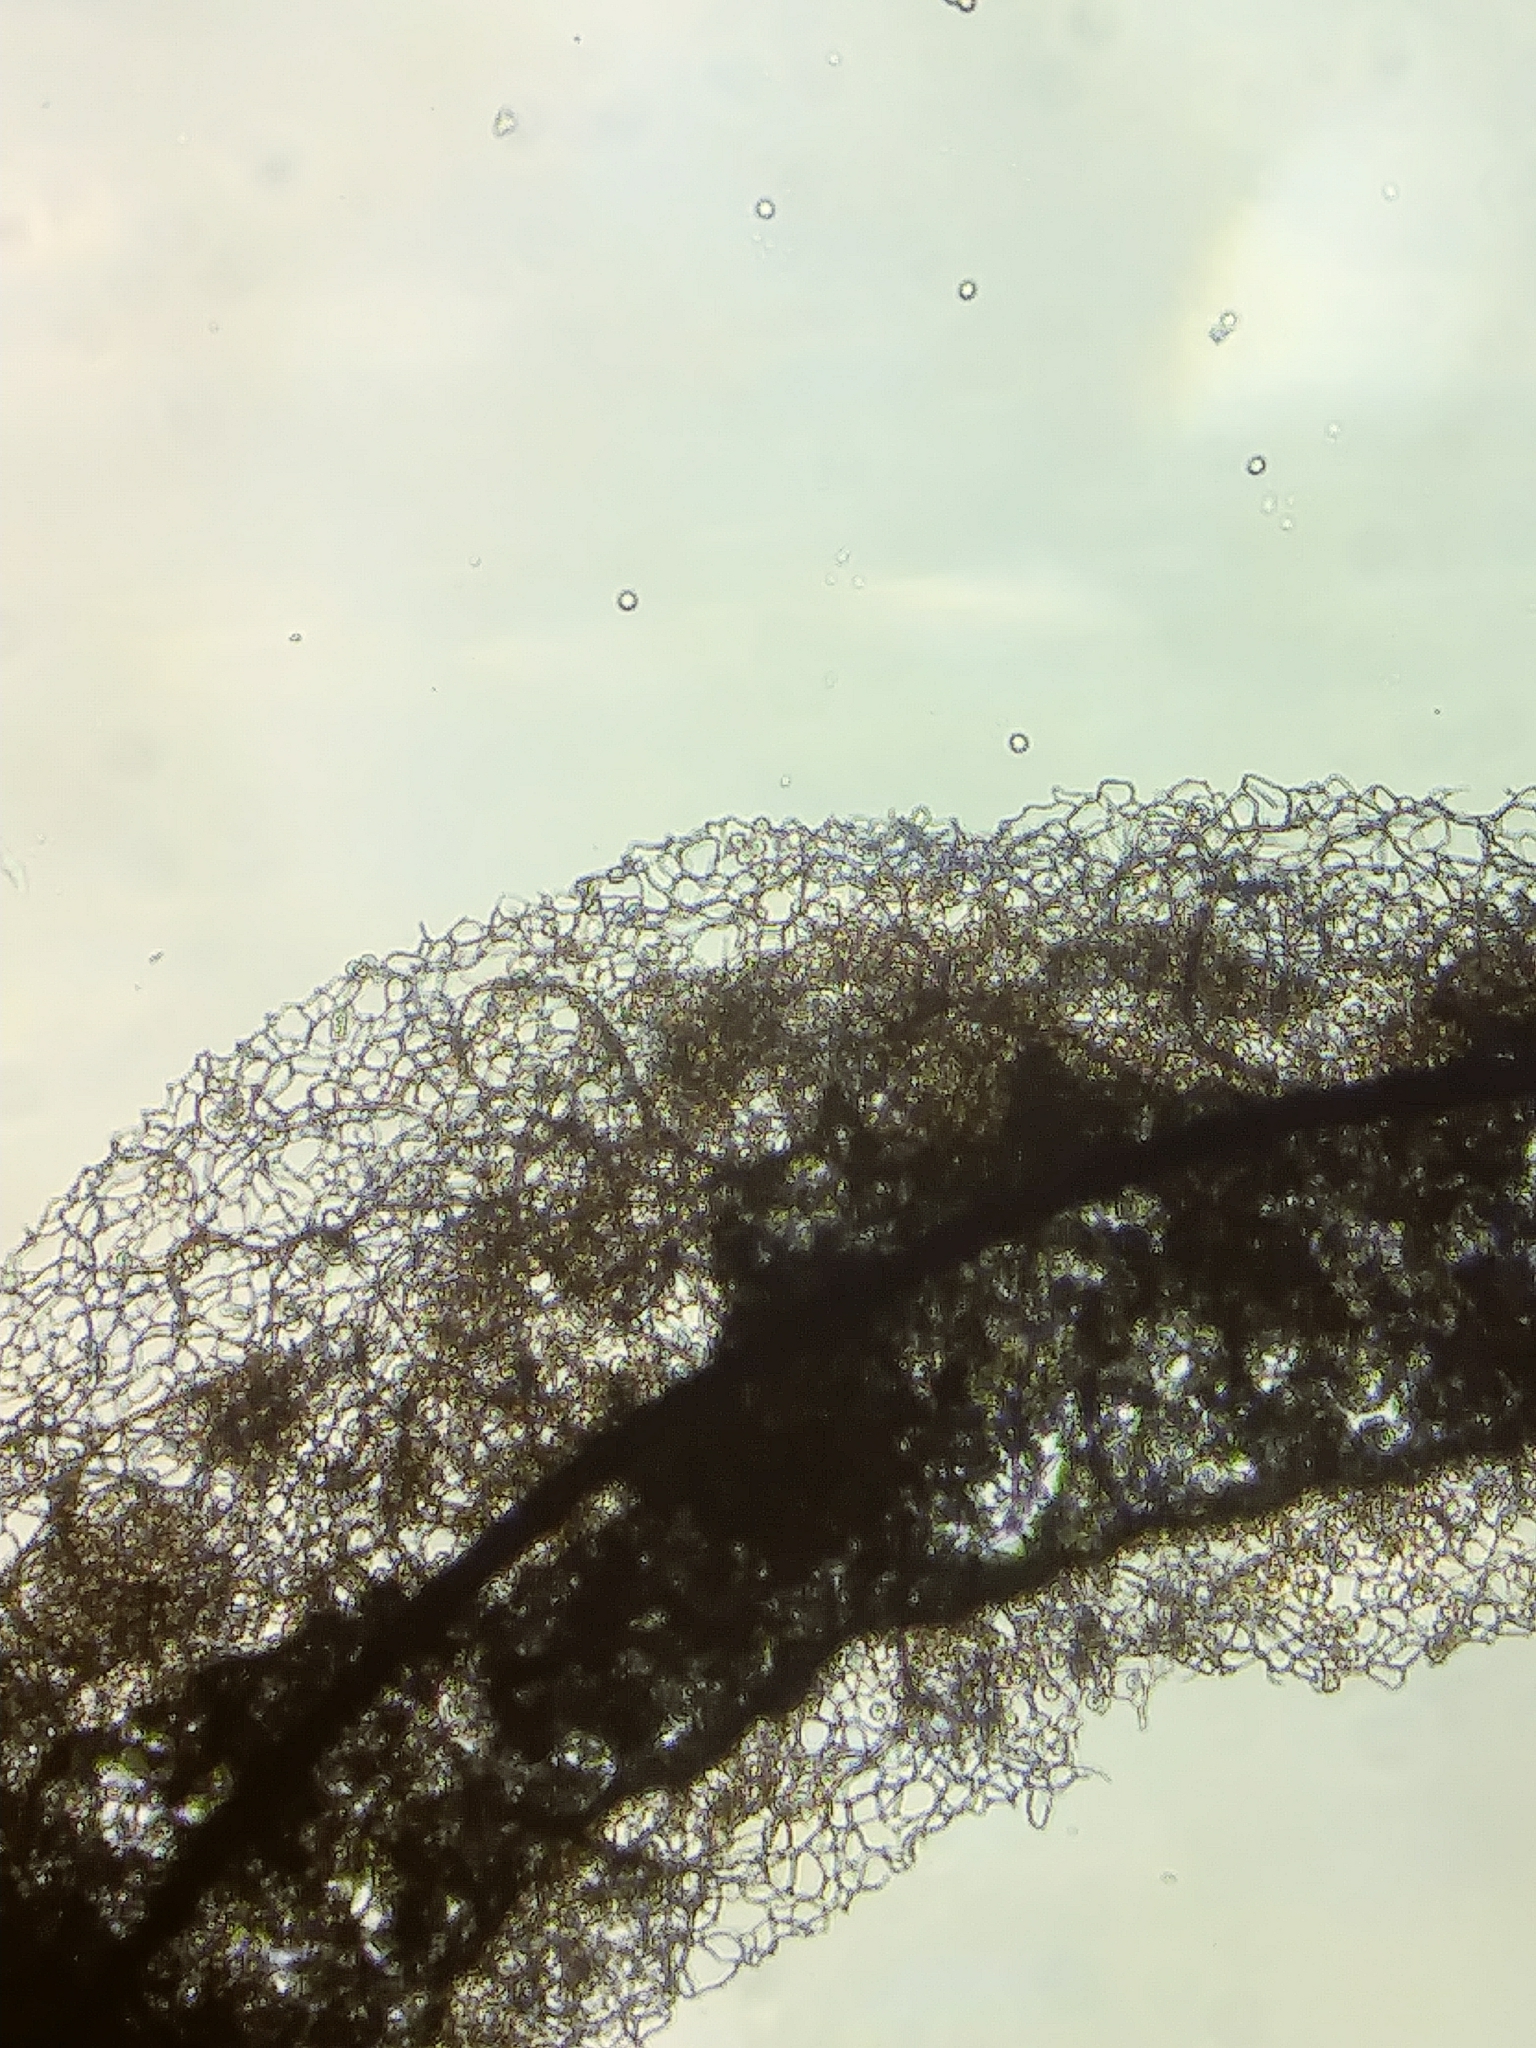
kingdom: Protozoa
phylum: Mycetozoa
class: Myxomycetes
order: Stemonitidales
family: Stemonitidaceae
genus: Stemonitis
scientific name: Stemonitis axifera
